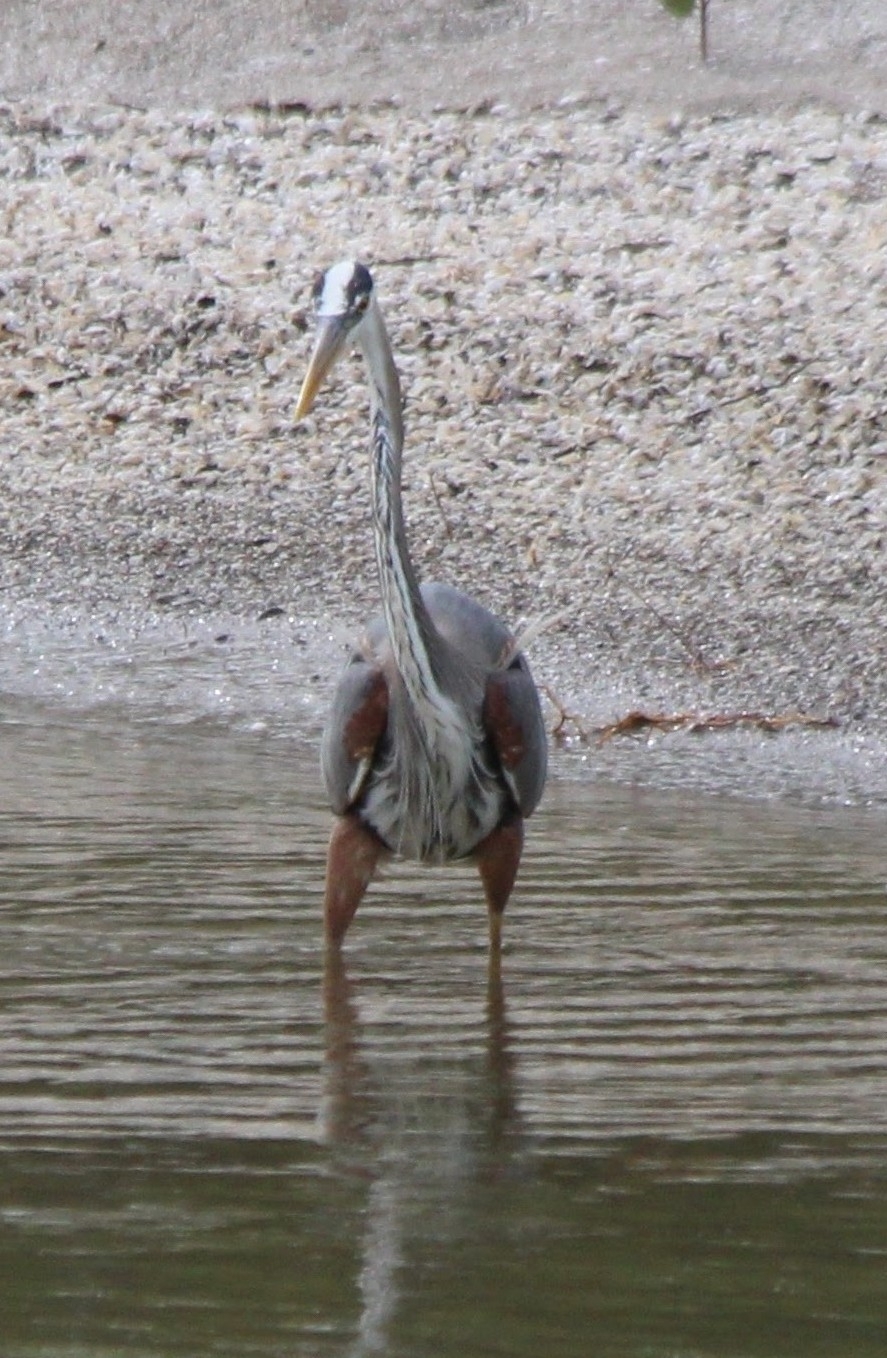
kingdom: Animalia
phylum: Chordata
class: Aves
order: Pelecaniformes
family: Ardeidae
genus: Ardea
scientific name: Ardea herodias
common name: Great blue heron
